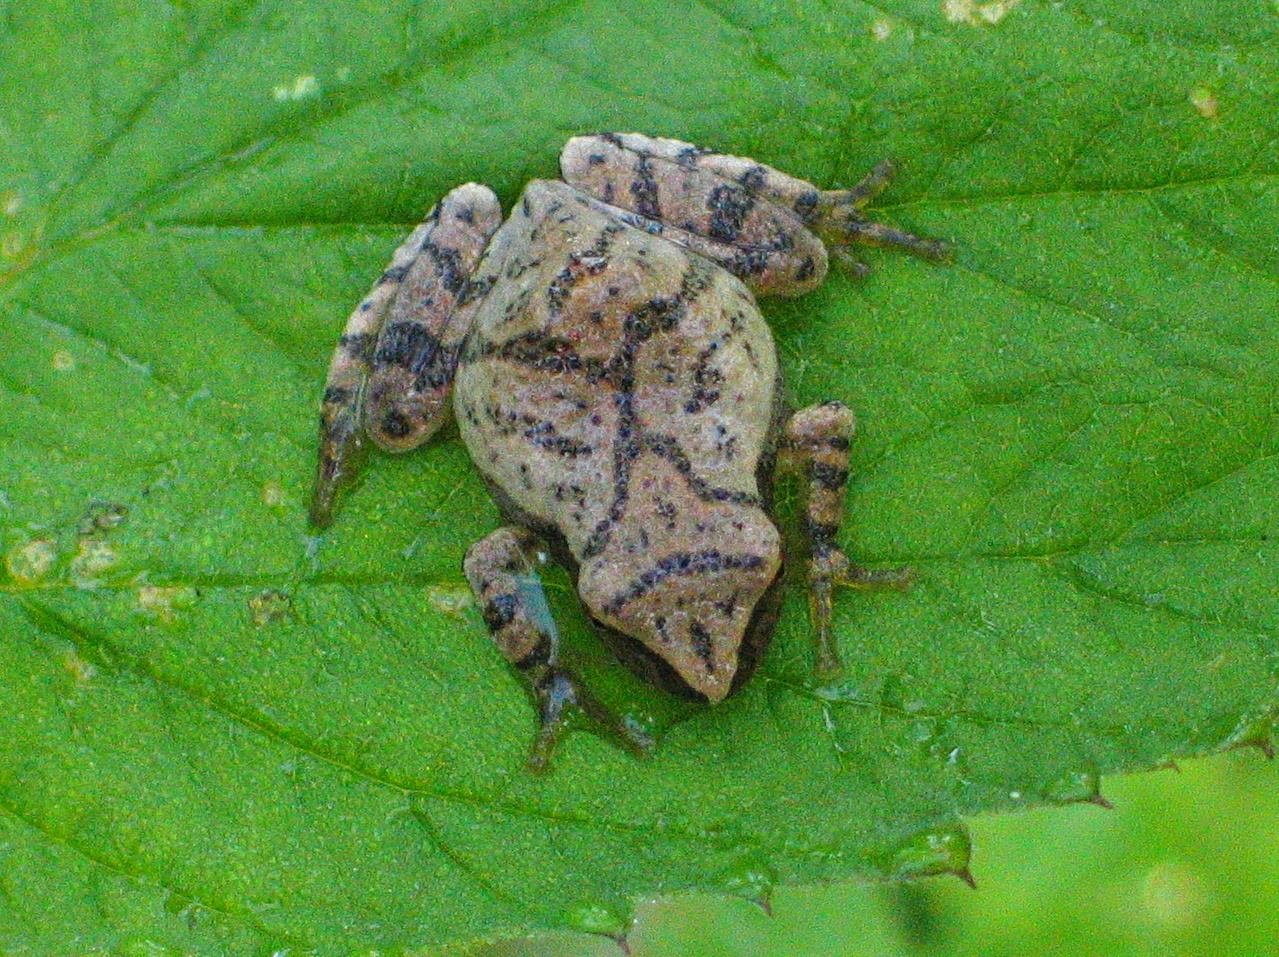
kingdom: Animalia
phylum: Chordata
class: Amphibia
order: Anura
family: Hylidae
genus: Pseudacris
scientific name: Pseudacris crucifer
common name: Spring peeper
